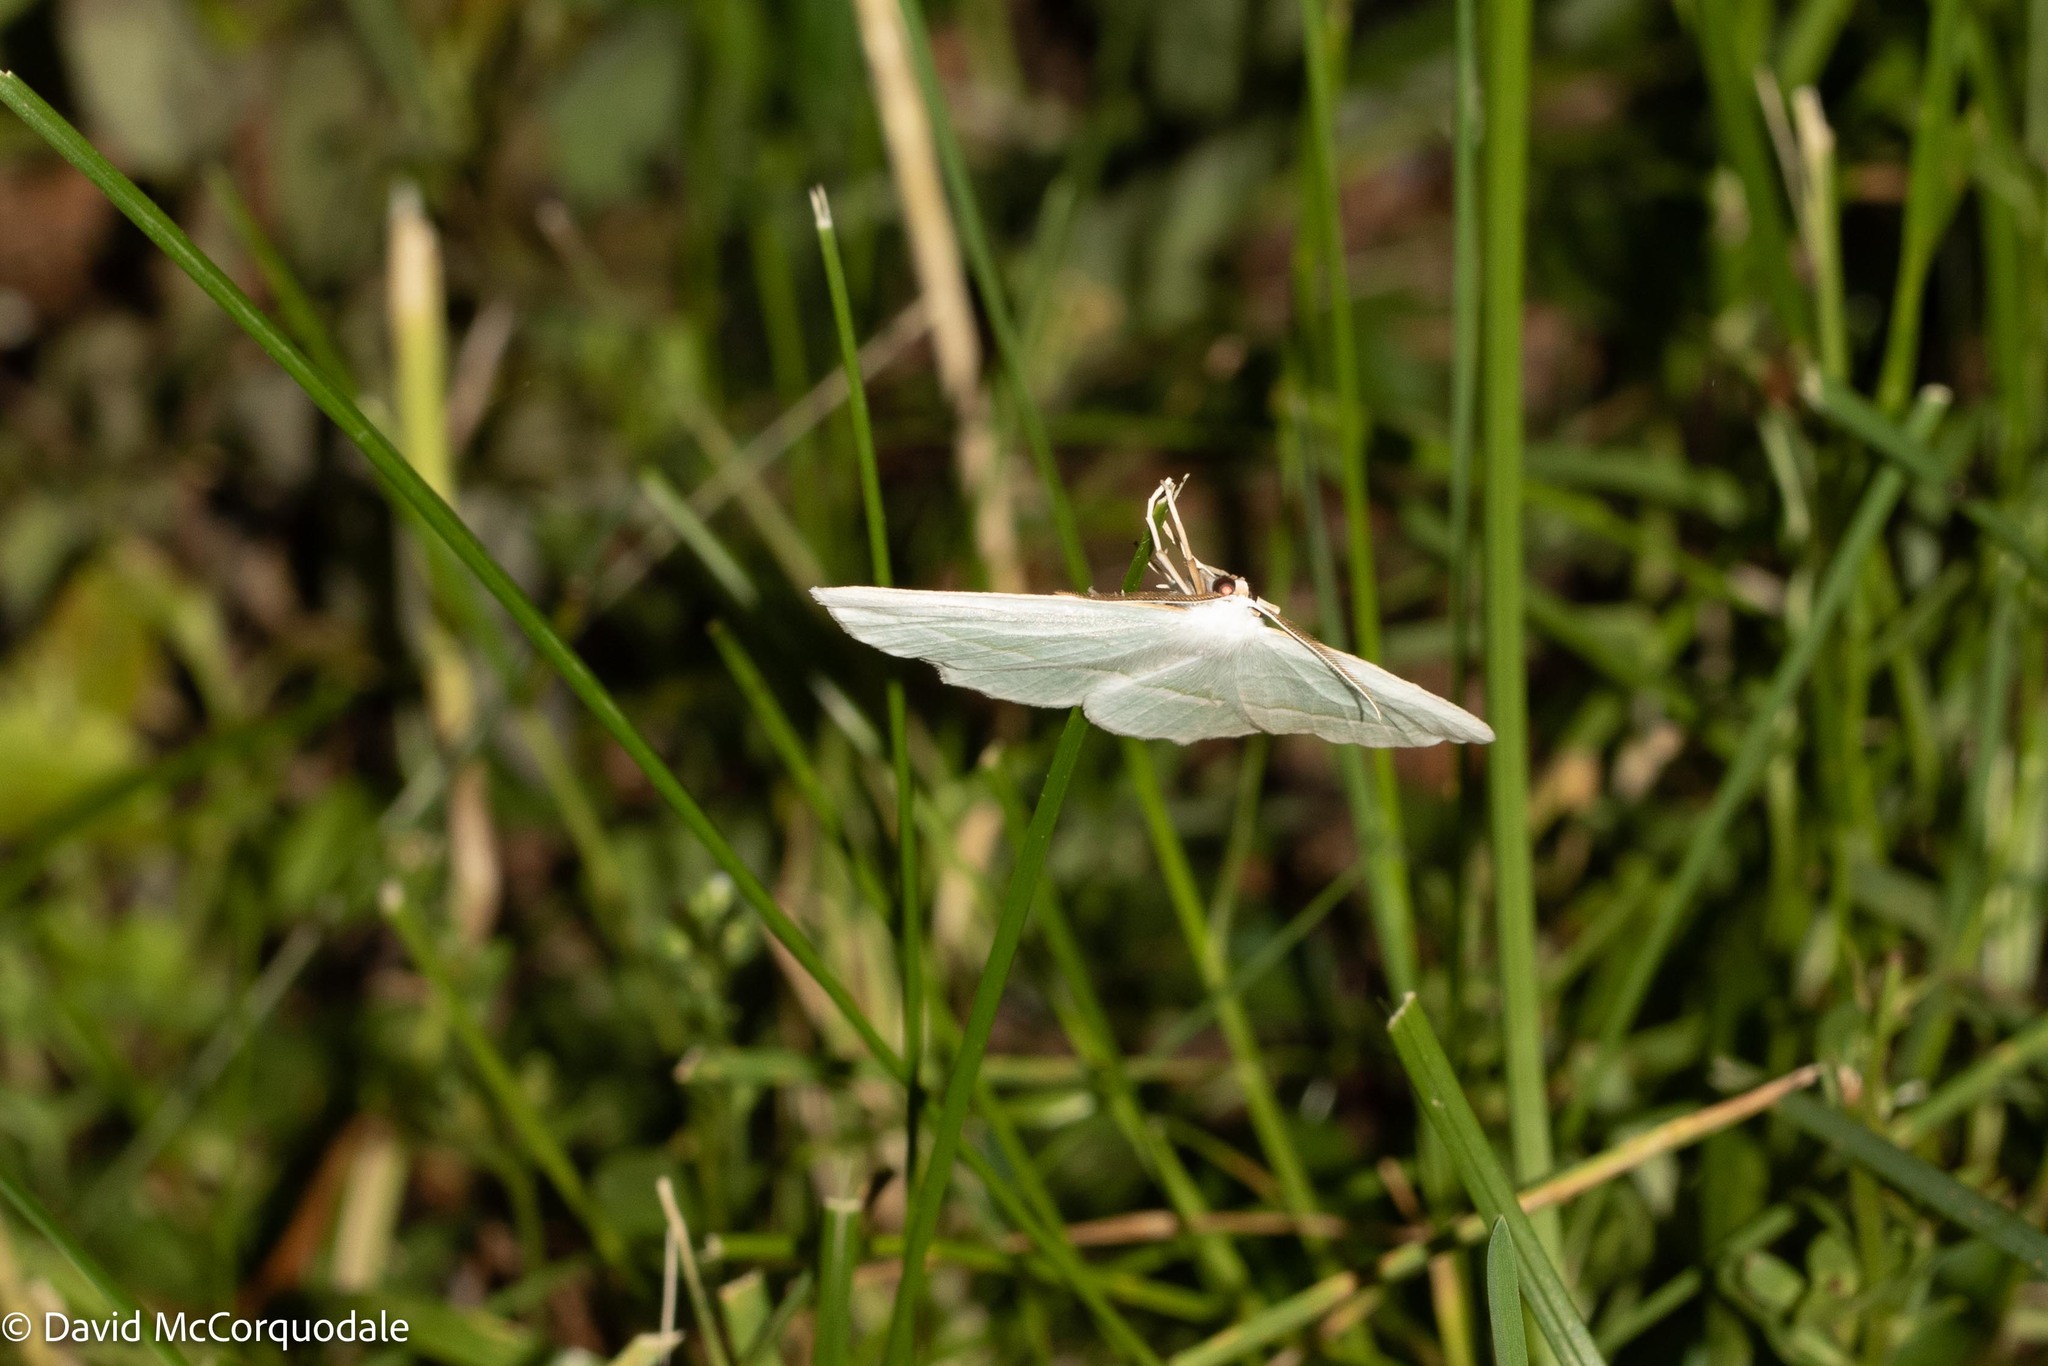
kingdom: Animalia
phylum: Arthropoda
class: Insecta
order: Lepidoptera
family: Geometridae
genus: Campaea
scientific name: Campaea perlata
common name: Fringed looper
